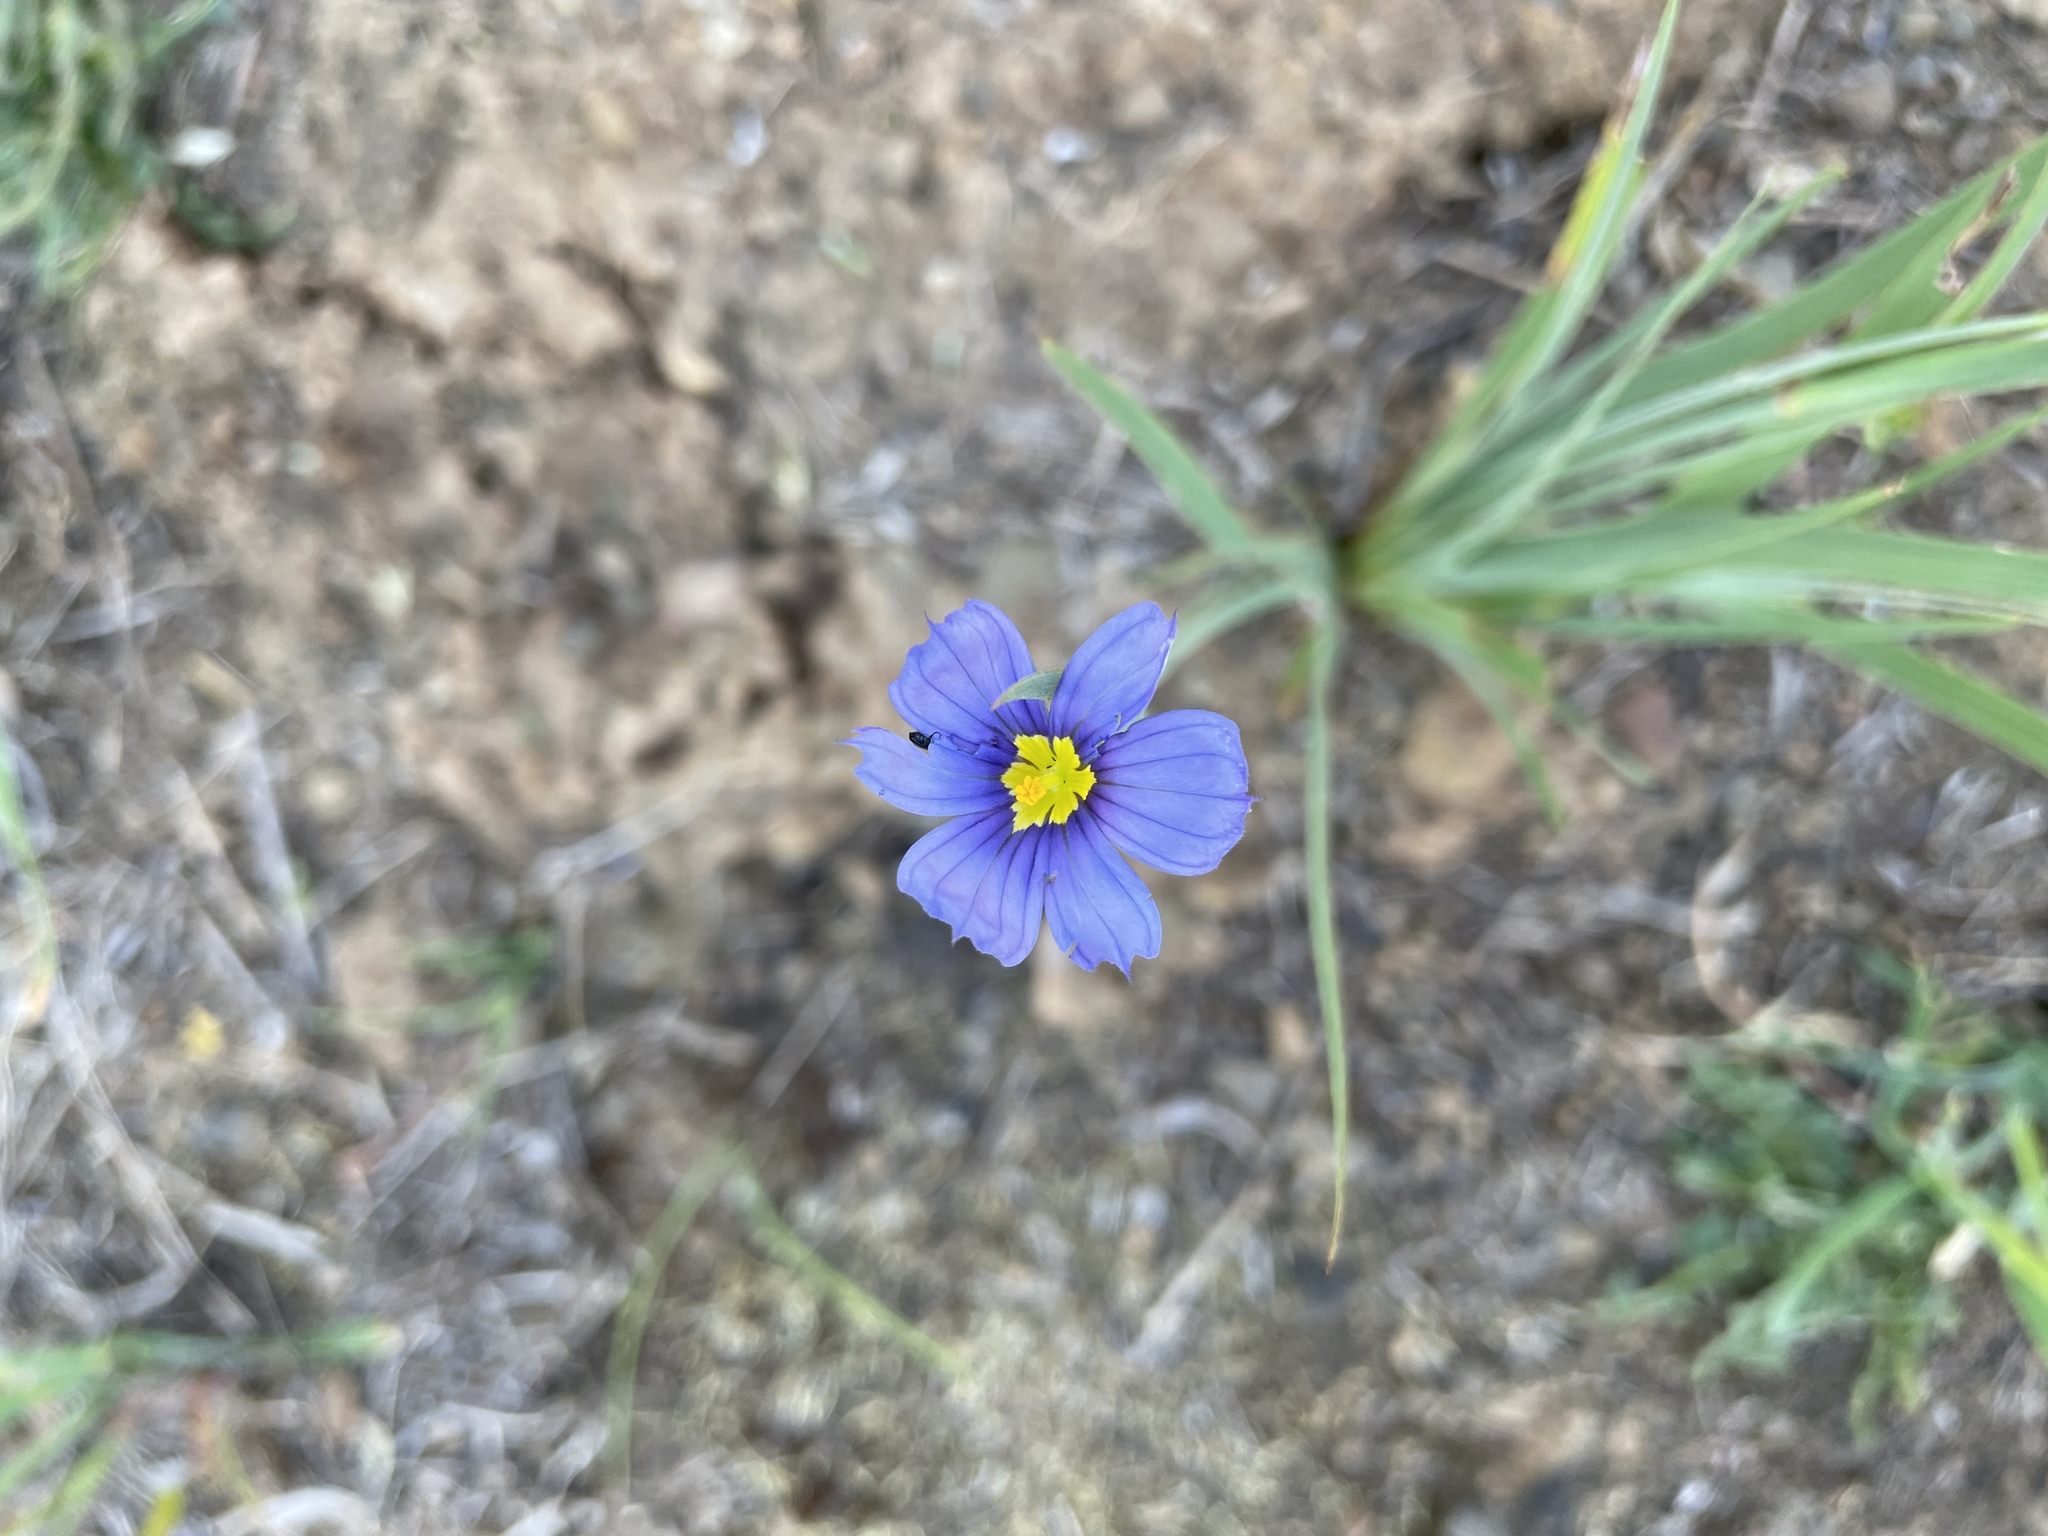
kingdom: Plantae
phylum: Tracheophyta
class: Liliopsida
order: Asparagales
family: Iridaceae
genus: Sisyrinchium
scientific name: Sisyrinchium bellum
